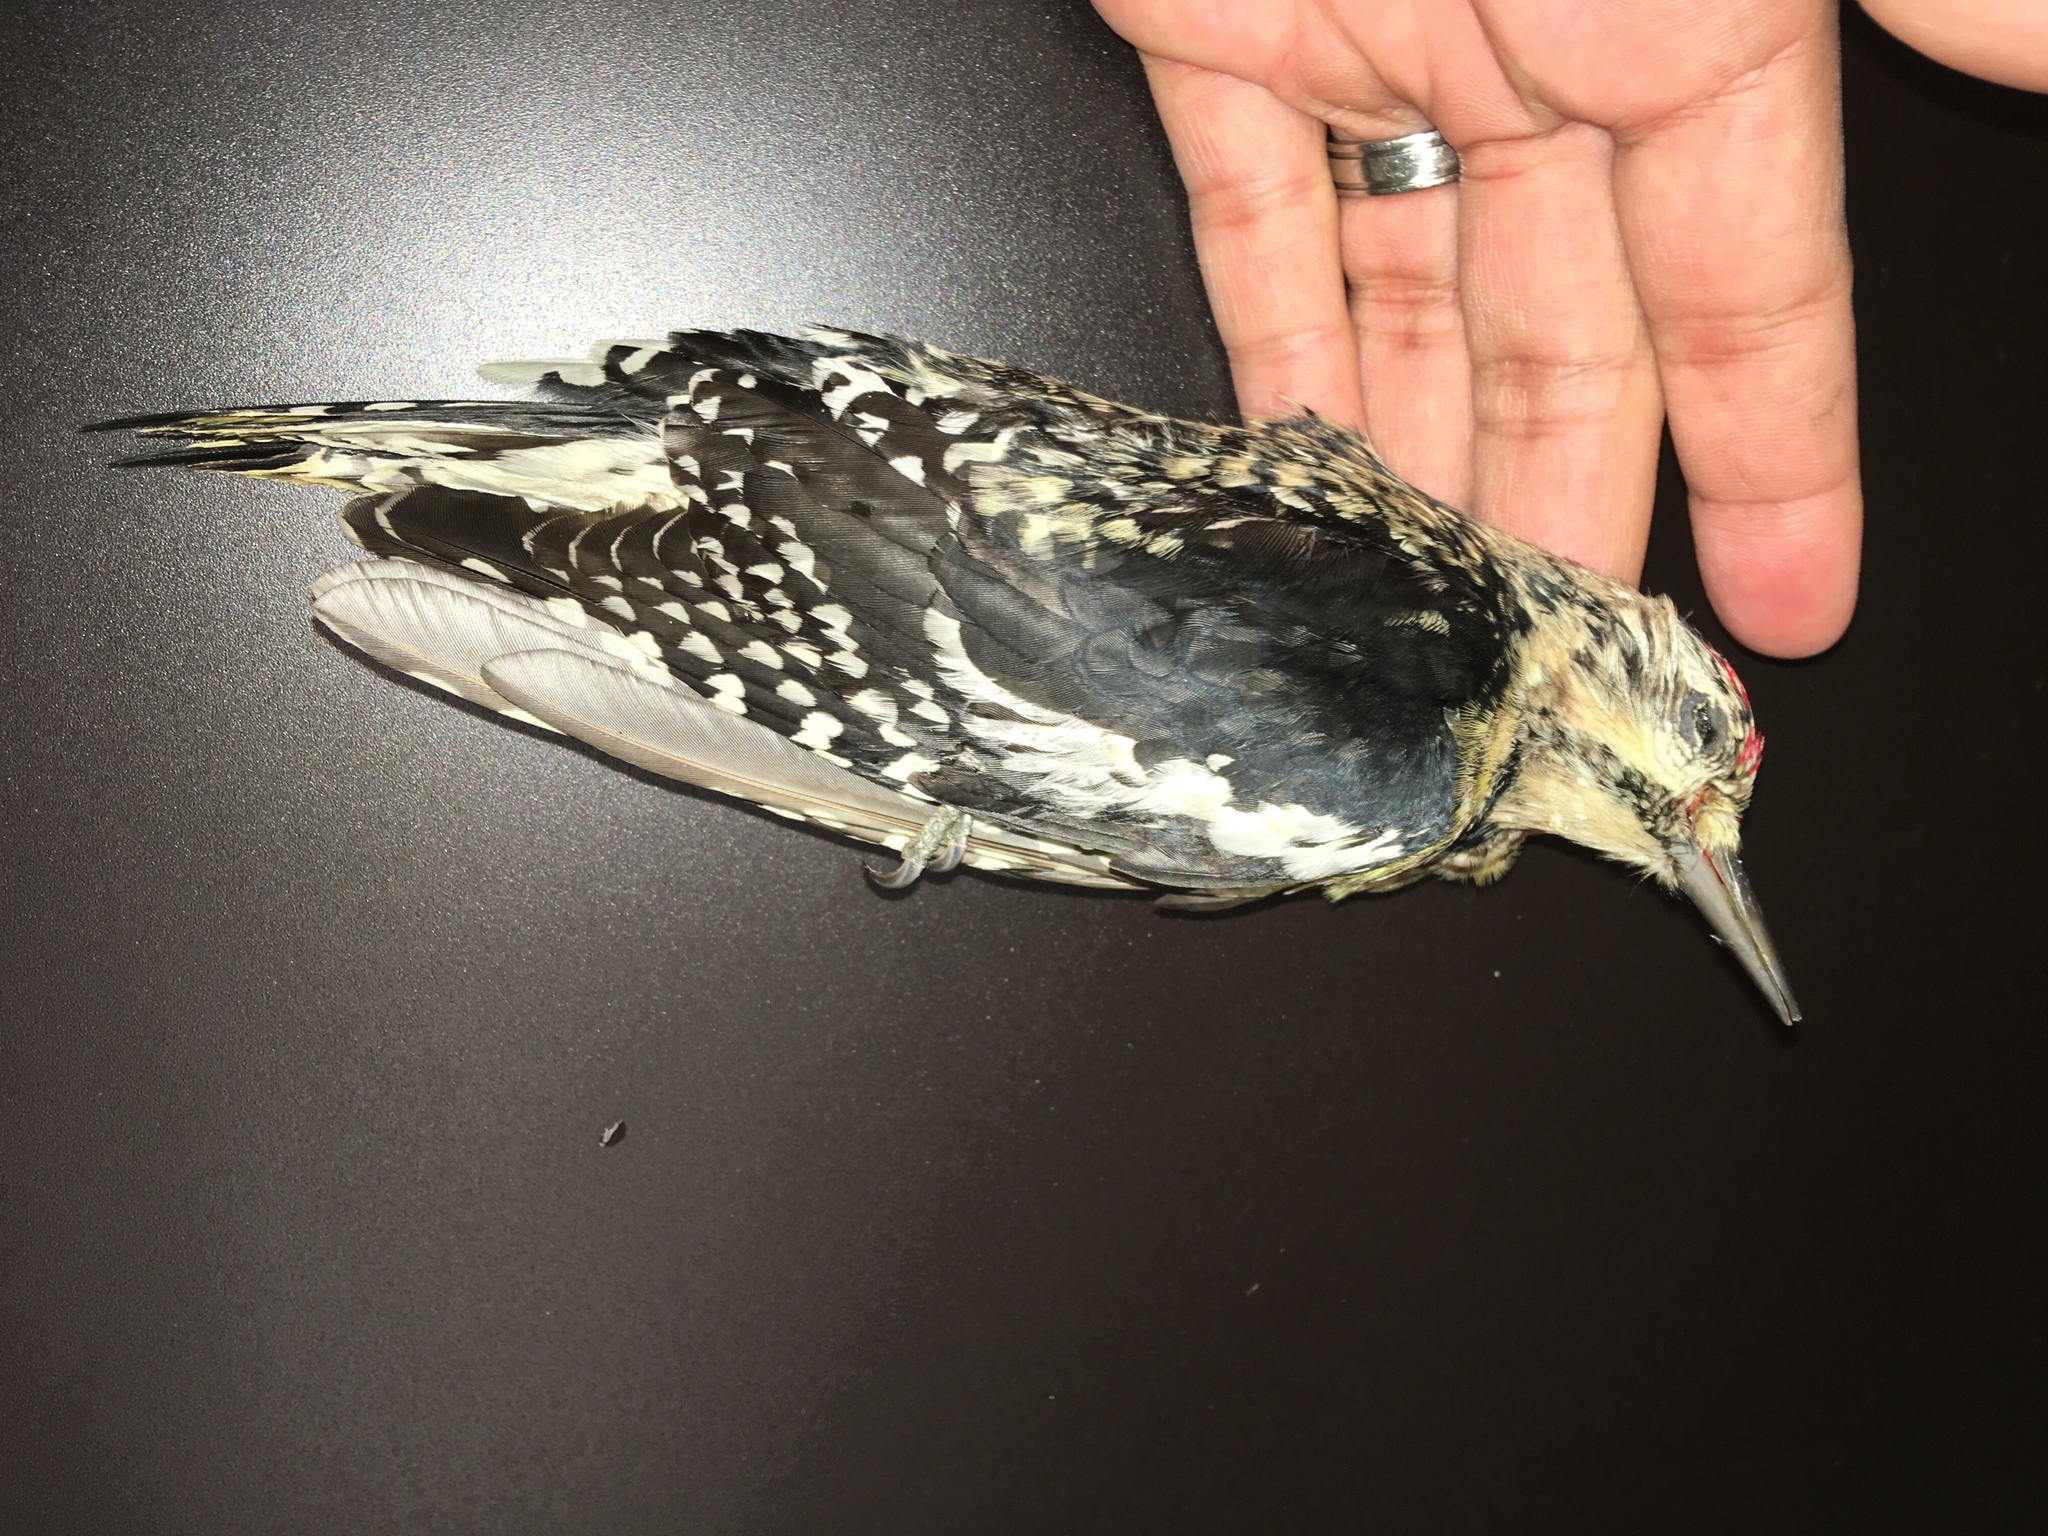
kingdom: Animalia
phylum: Chordata
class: Aves
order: Piciformes
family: Picidae
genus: Sphyrapicus
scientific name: Sphyrapicus varius
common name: Yellow-bellied sapsucker
